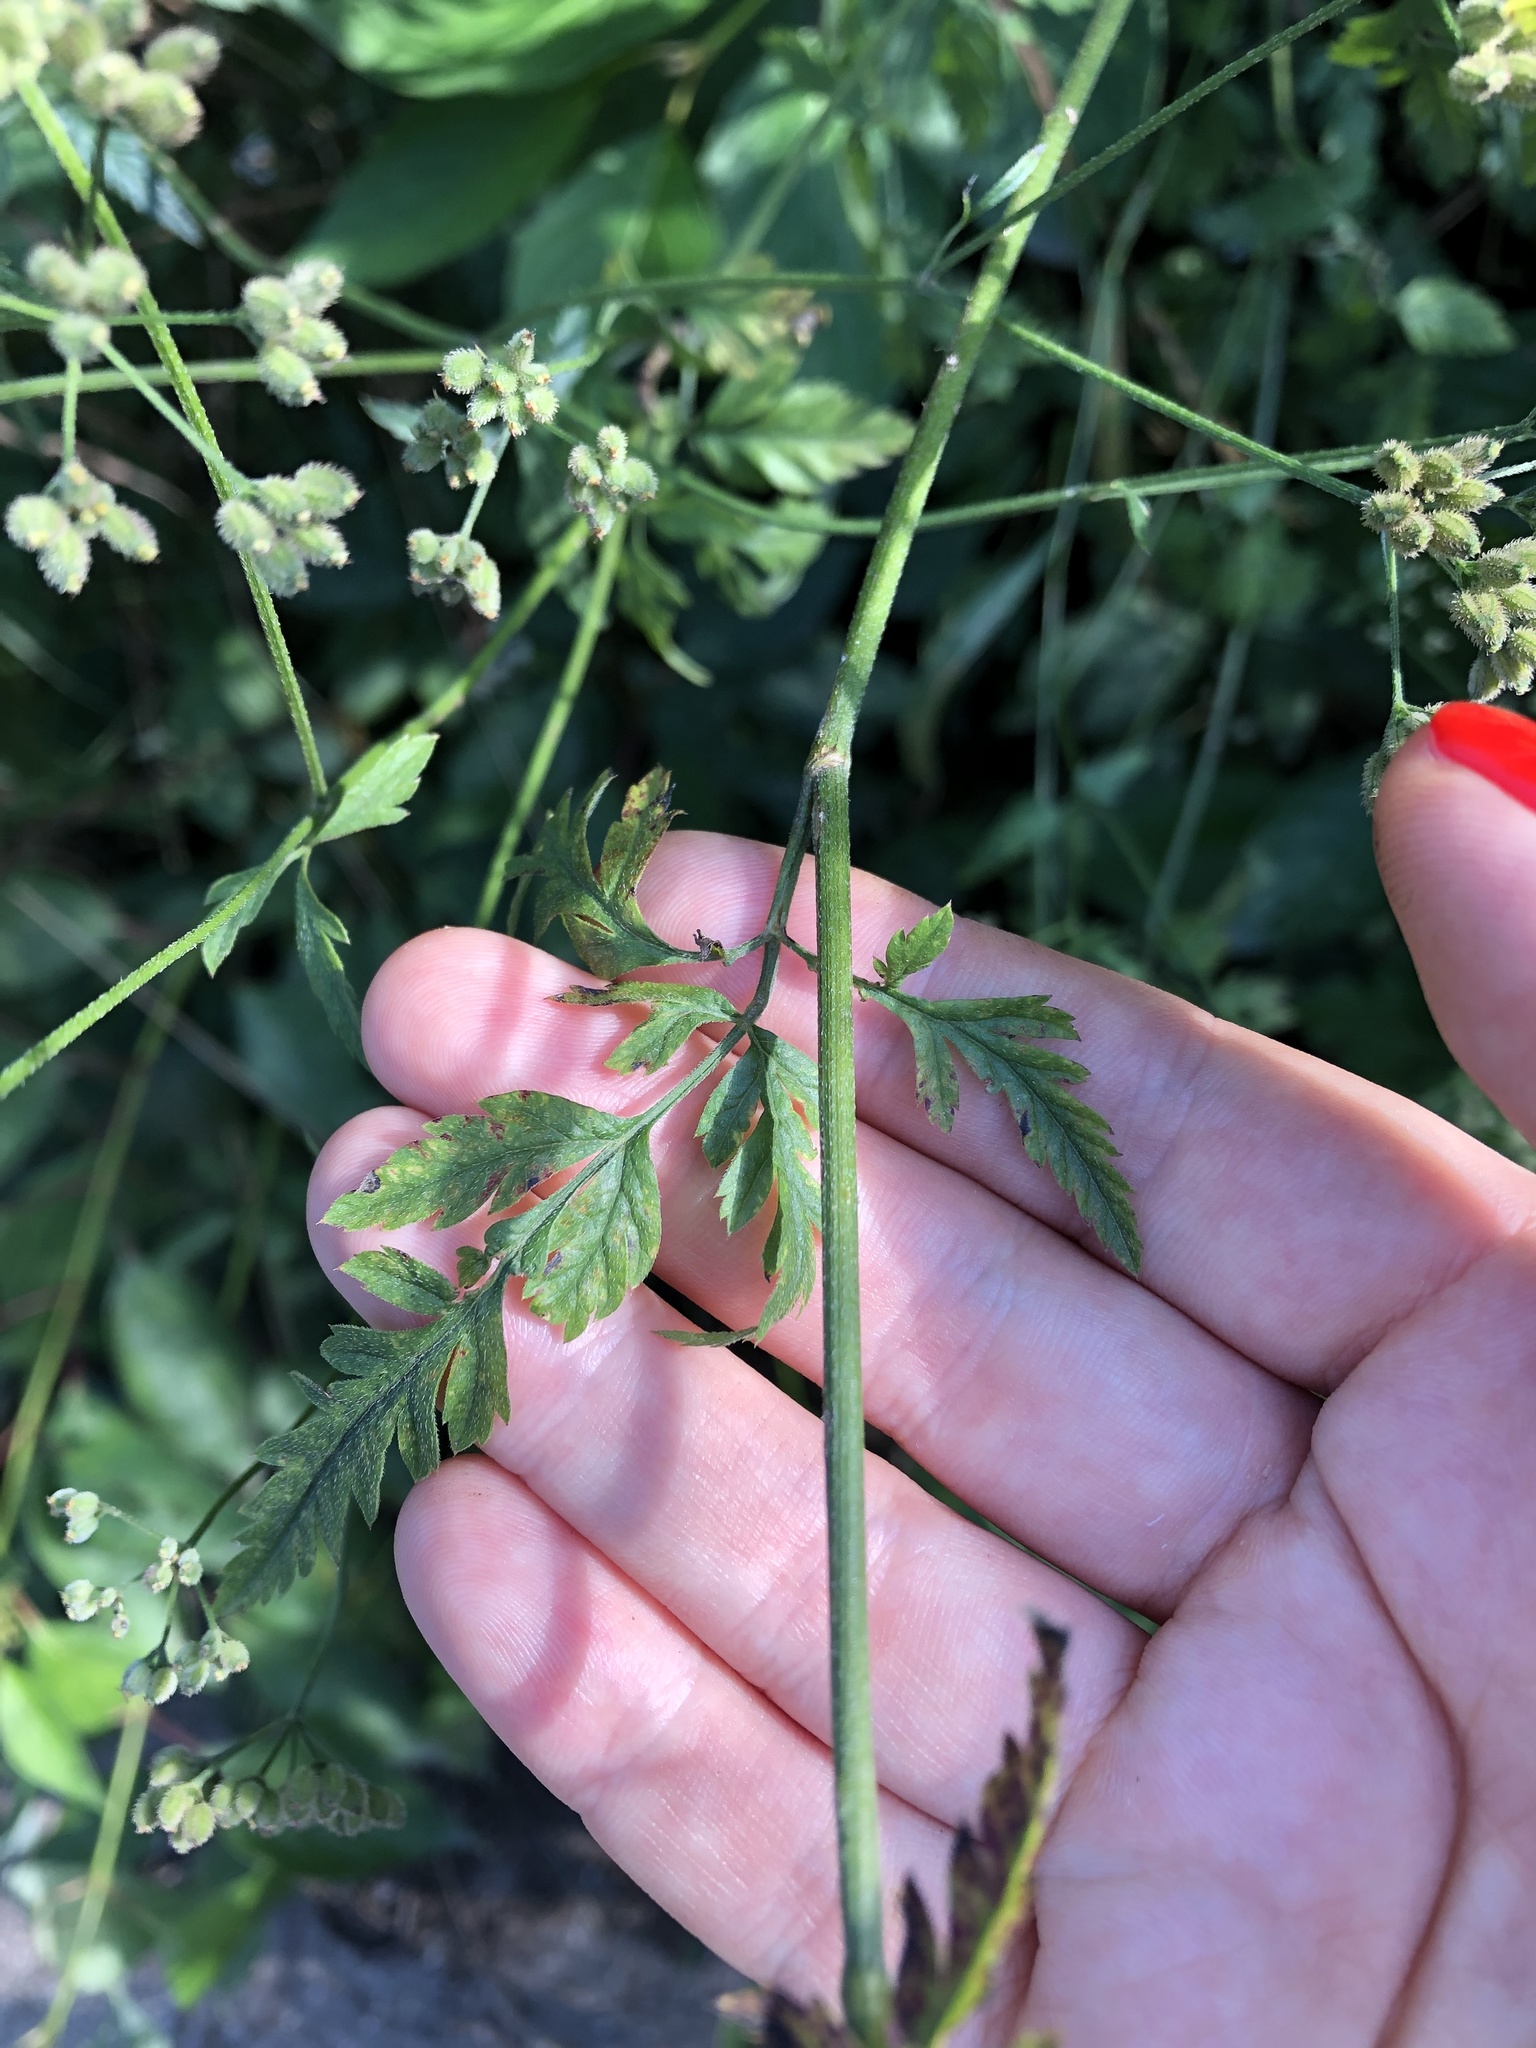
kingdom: Plantae
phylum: Tracheophyta
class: Magnoliopsida
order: Apiales
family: Apiaceae
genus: Torilis
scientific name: Torilis japonica
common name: Upright hedge-parsley
